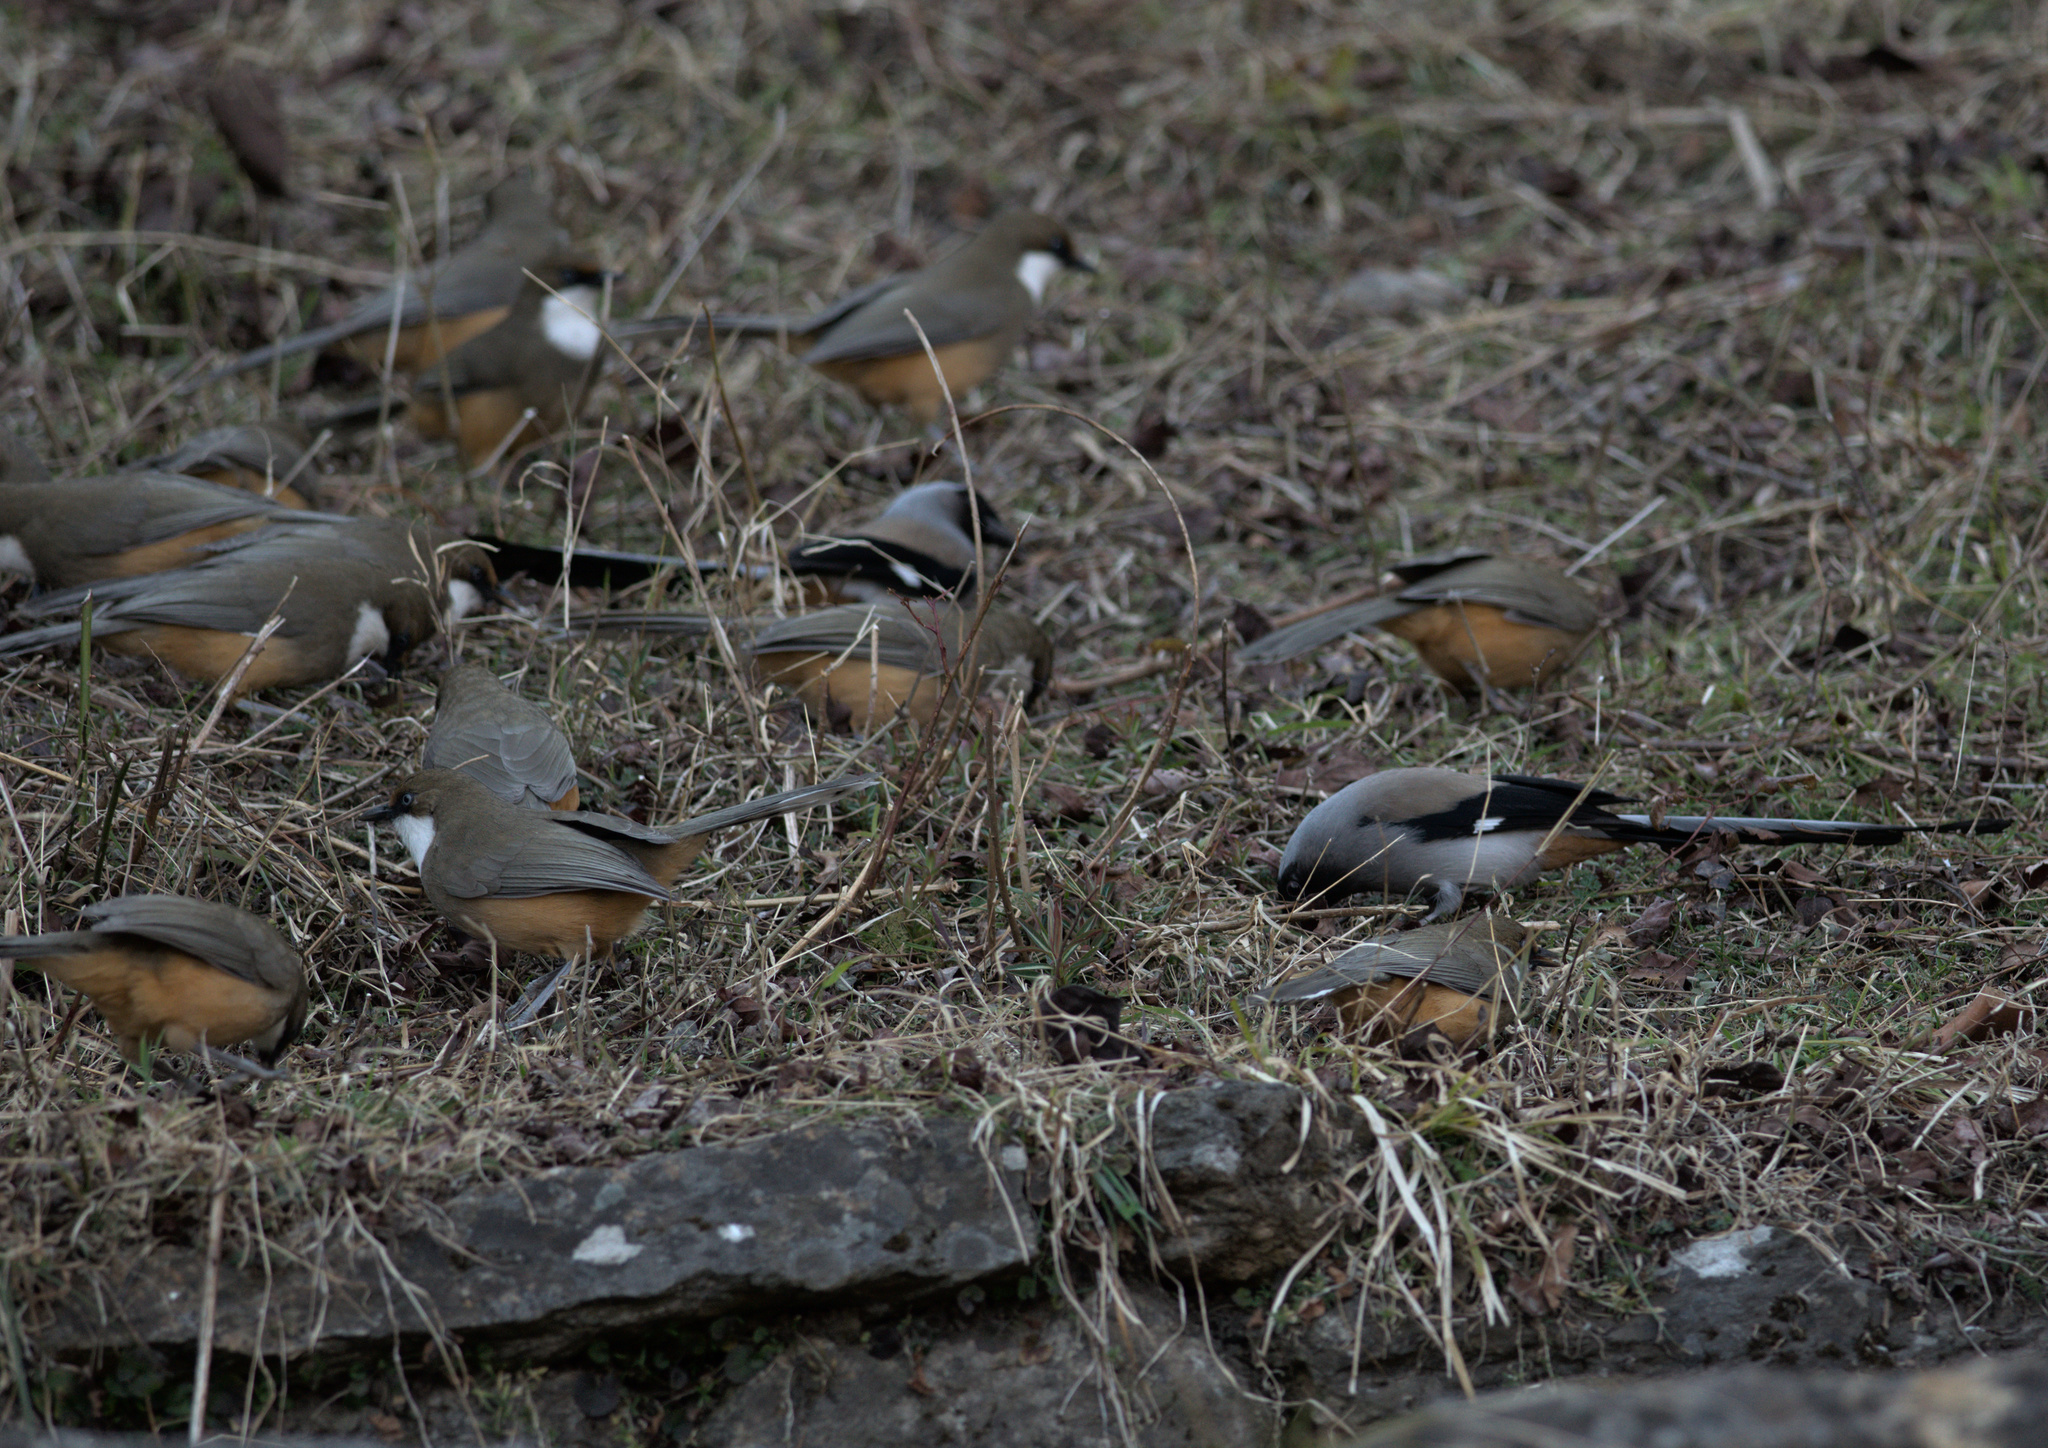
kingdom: Animalia
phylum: Chordata
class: Aves
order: Passeriformes
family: Corvidae
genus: Dendrocitta
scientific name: Dendrocitta formosae
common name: Grey treepie
